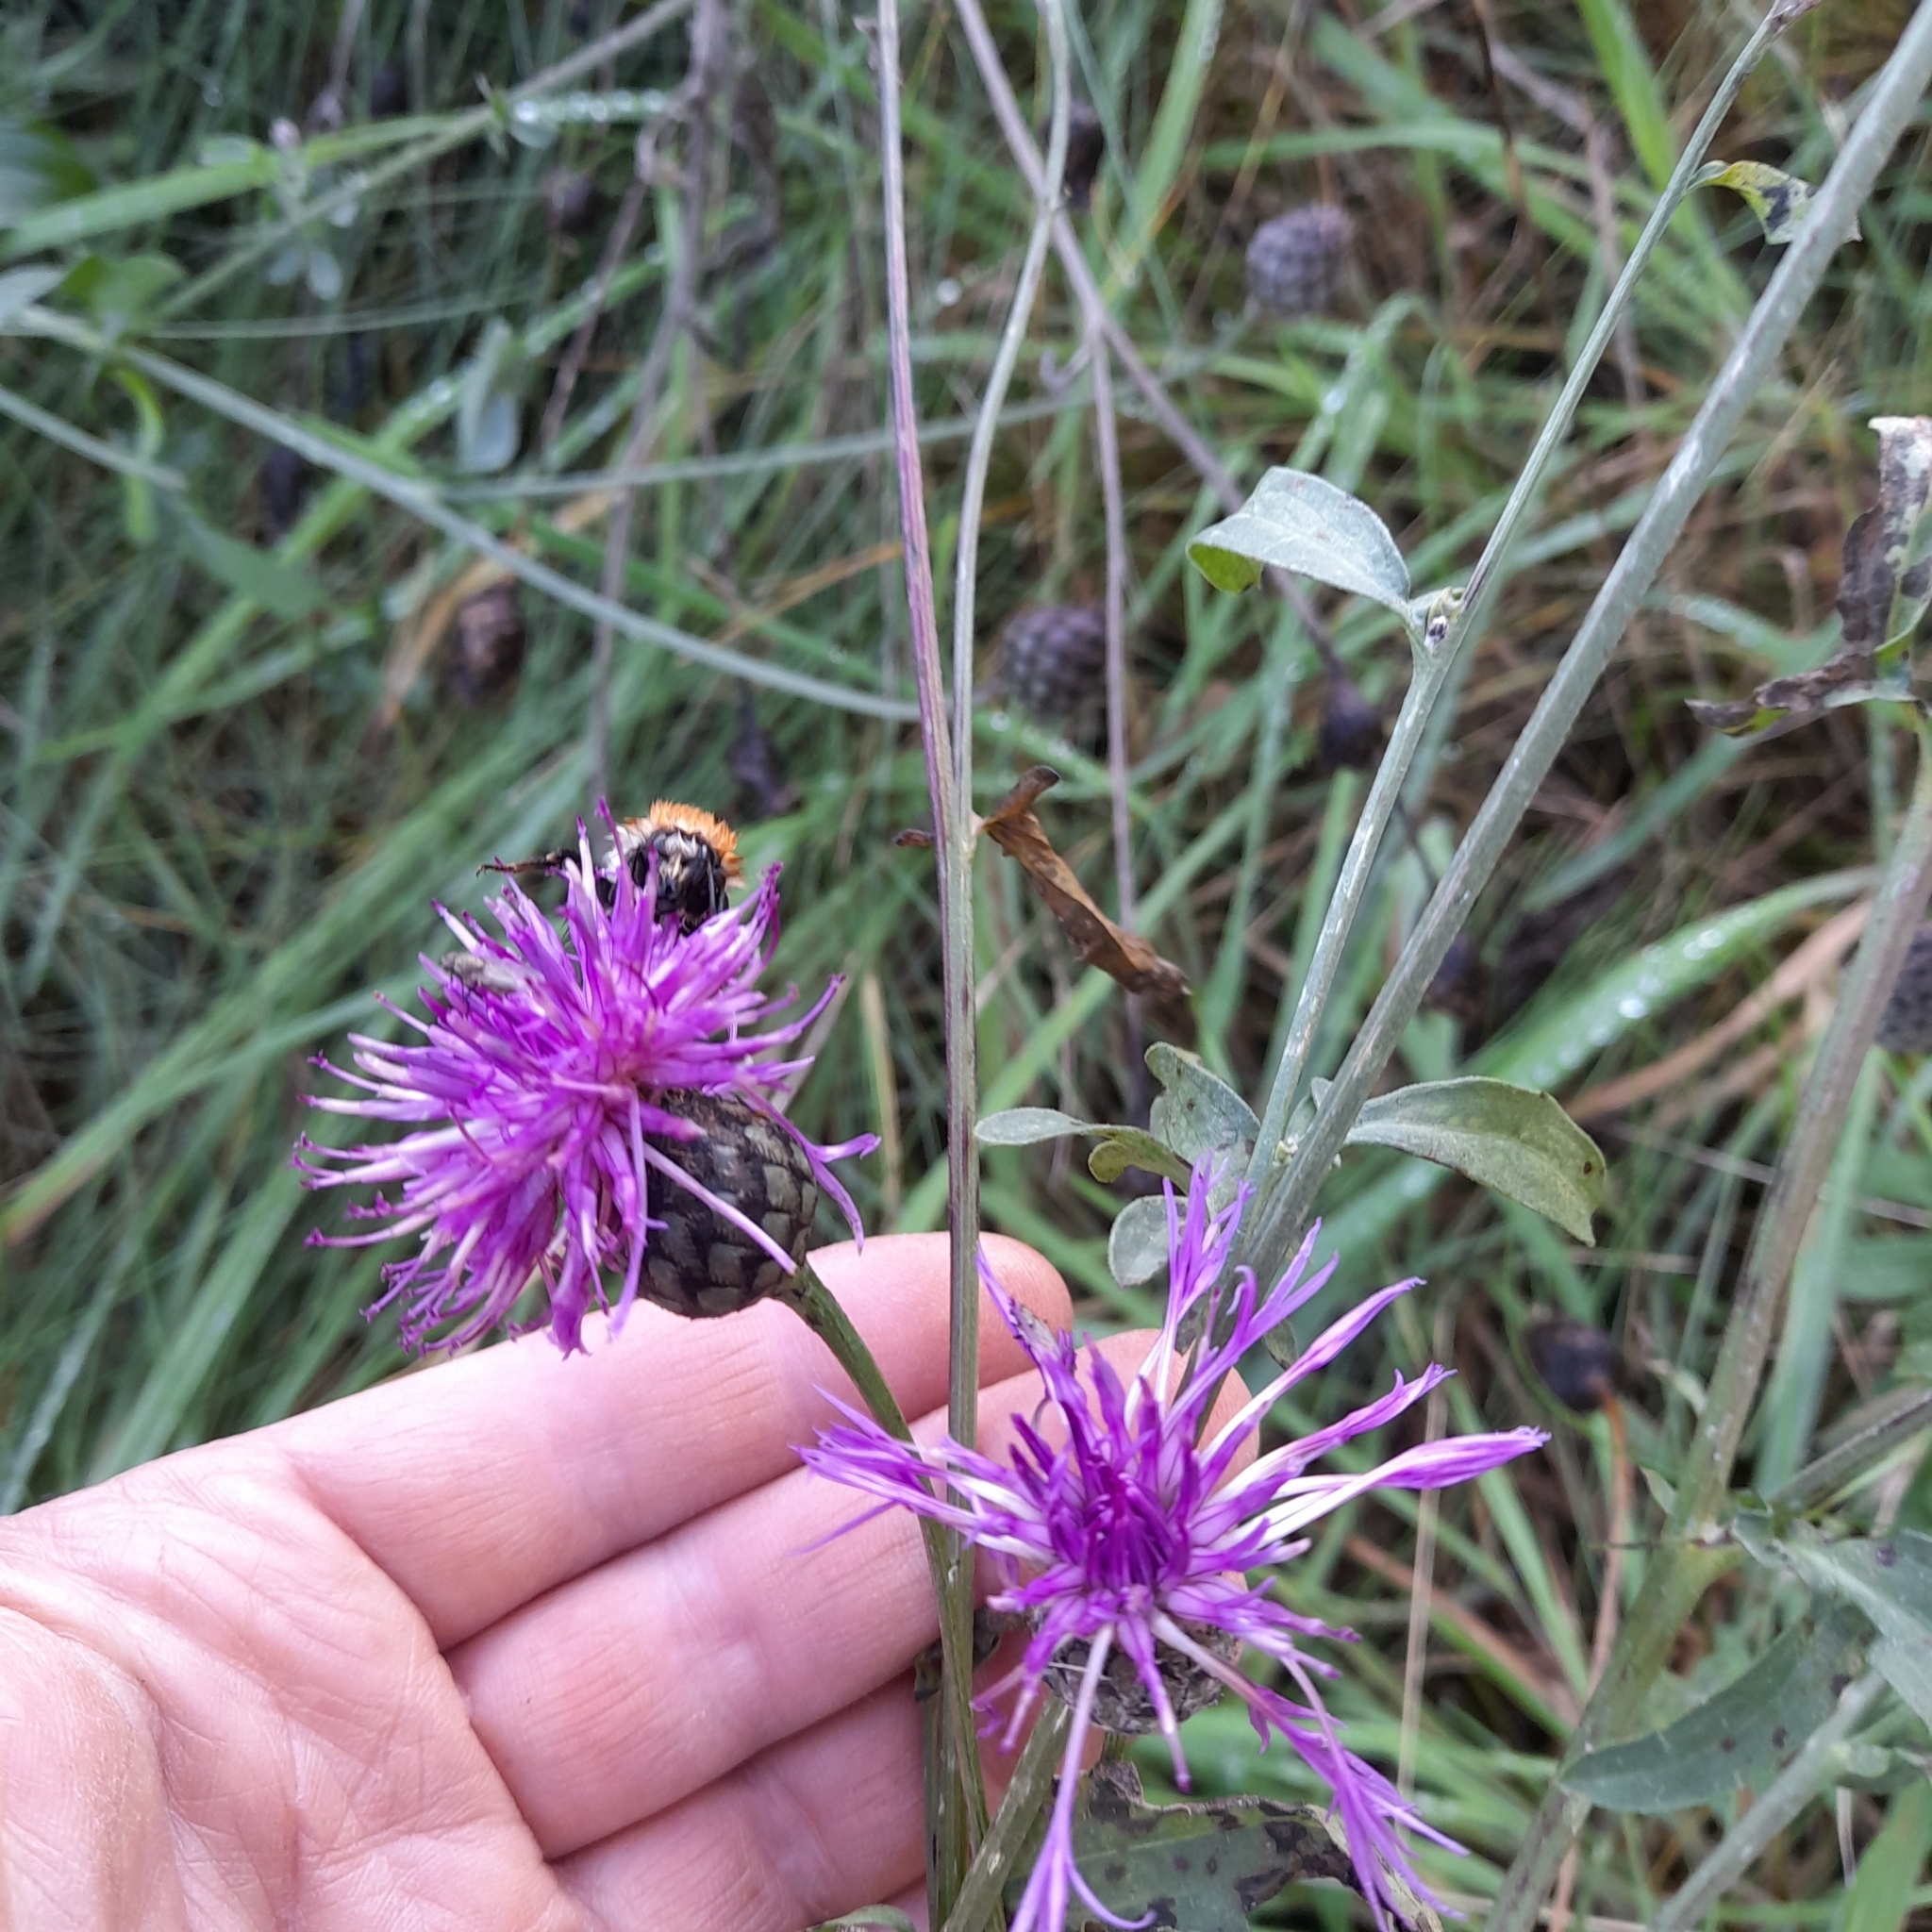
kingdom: Plantae
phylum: Tracheophyta
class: Magnoliopsida
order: Asterales
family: Asteraceae
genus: Centaurea
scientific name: Centaurea scabiosa
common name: Greater knapweed
